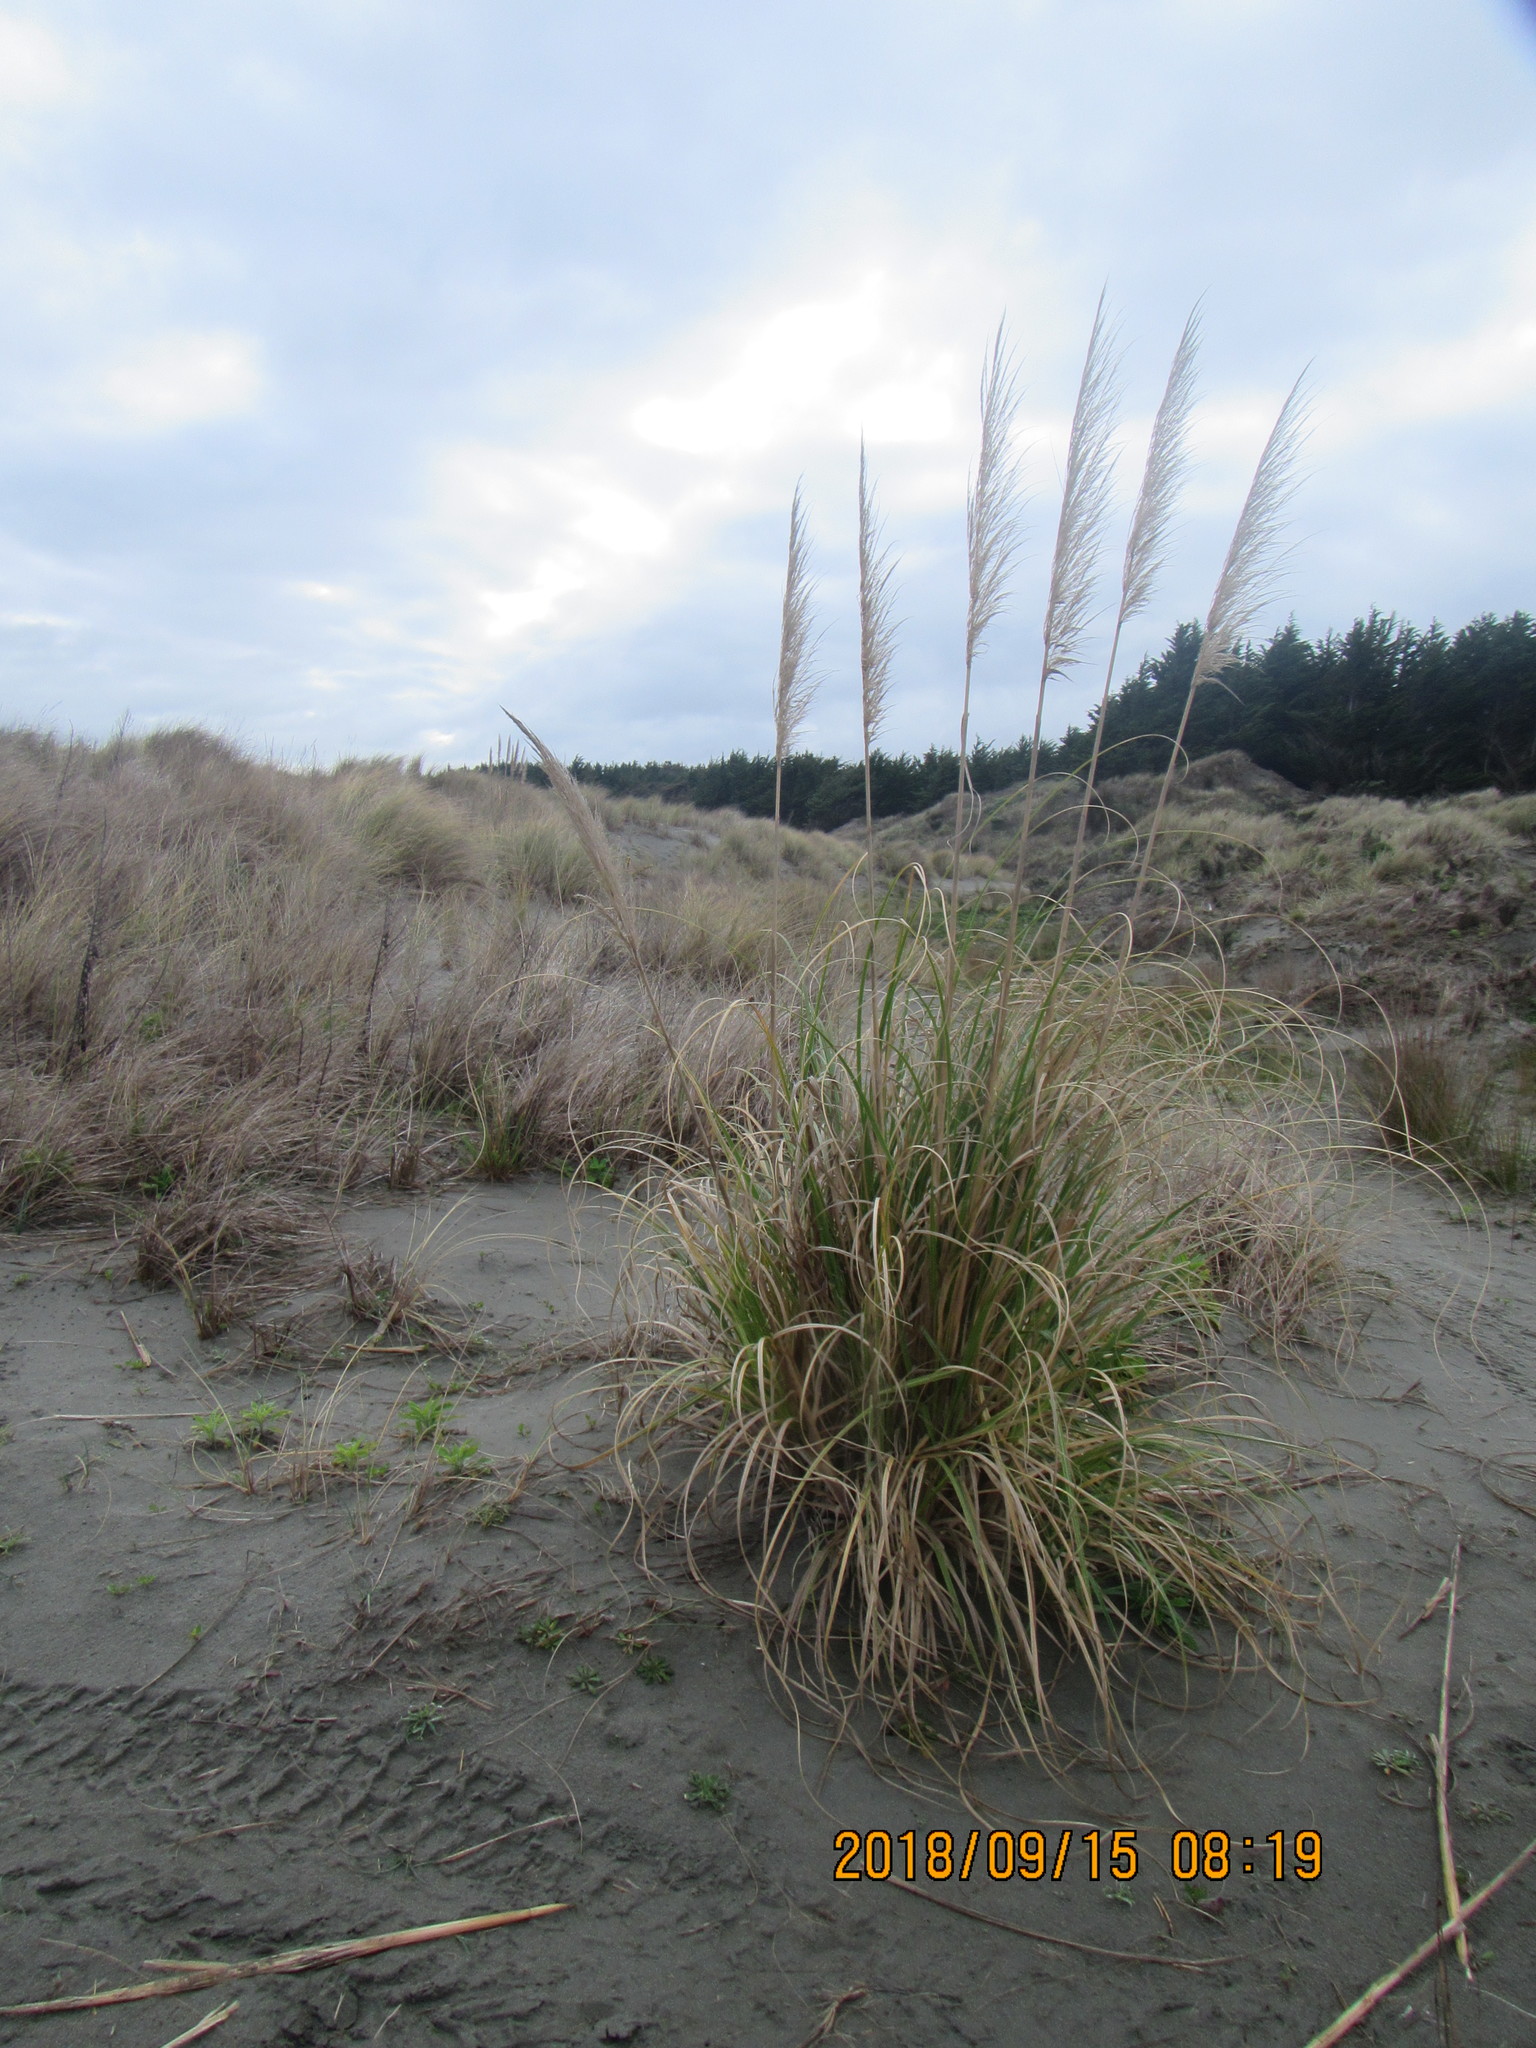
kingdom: Plantae
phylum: Tracheophyta
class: Liliopsida
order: Poales
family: Poaceae
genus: Cortaderia
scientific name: Cortaderia selloana
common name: Uruguayan pampas grass
